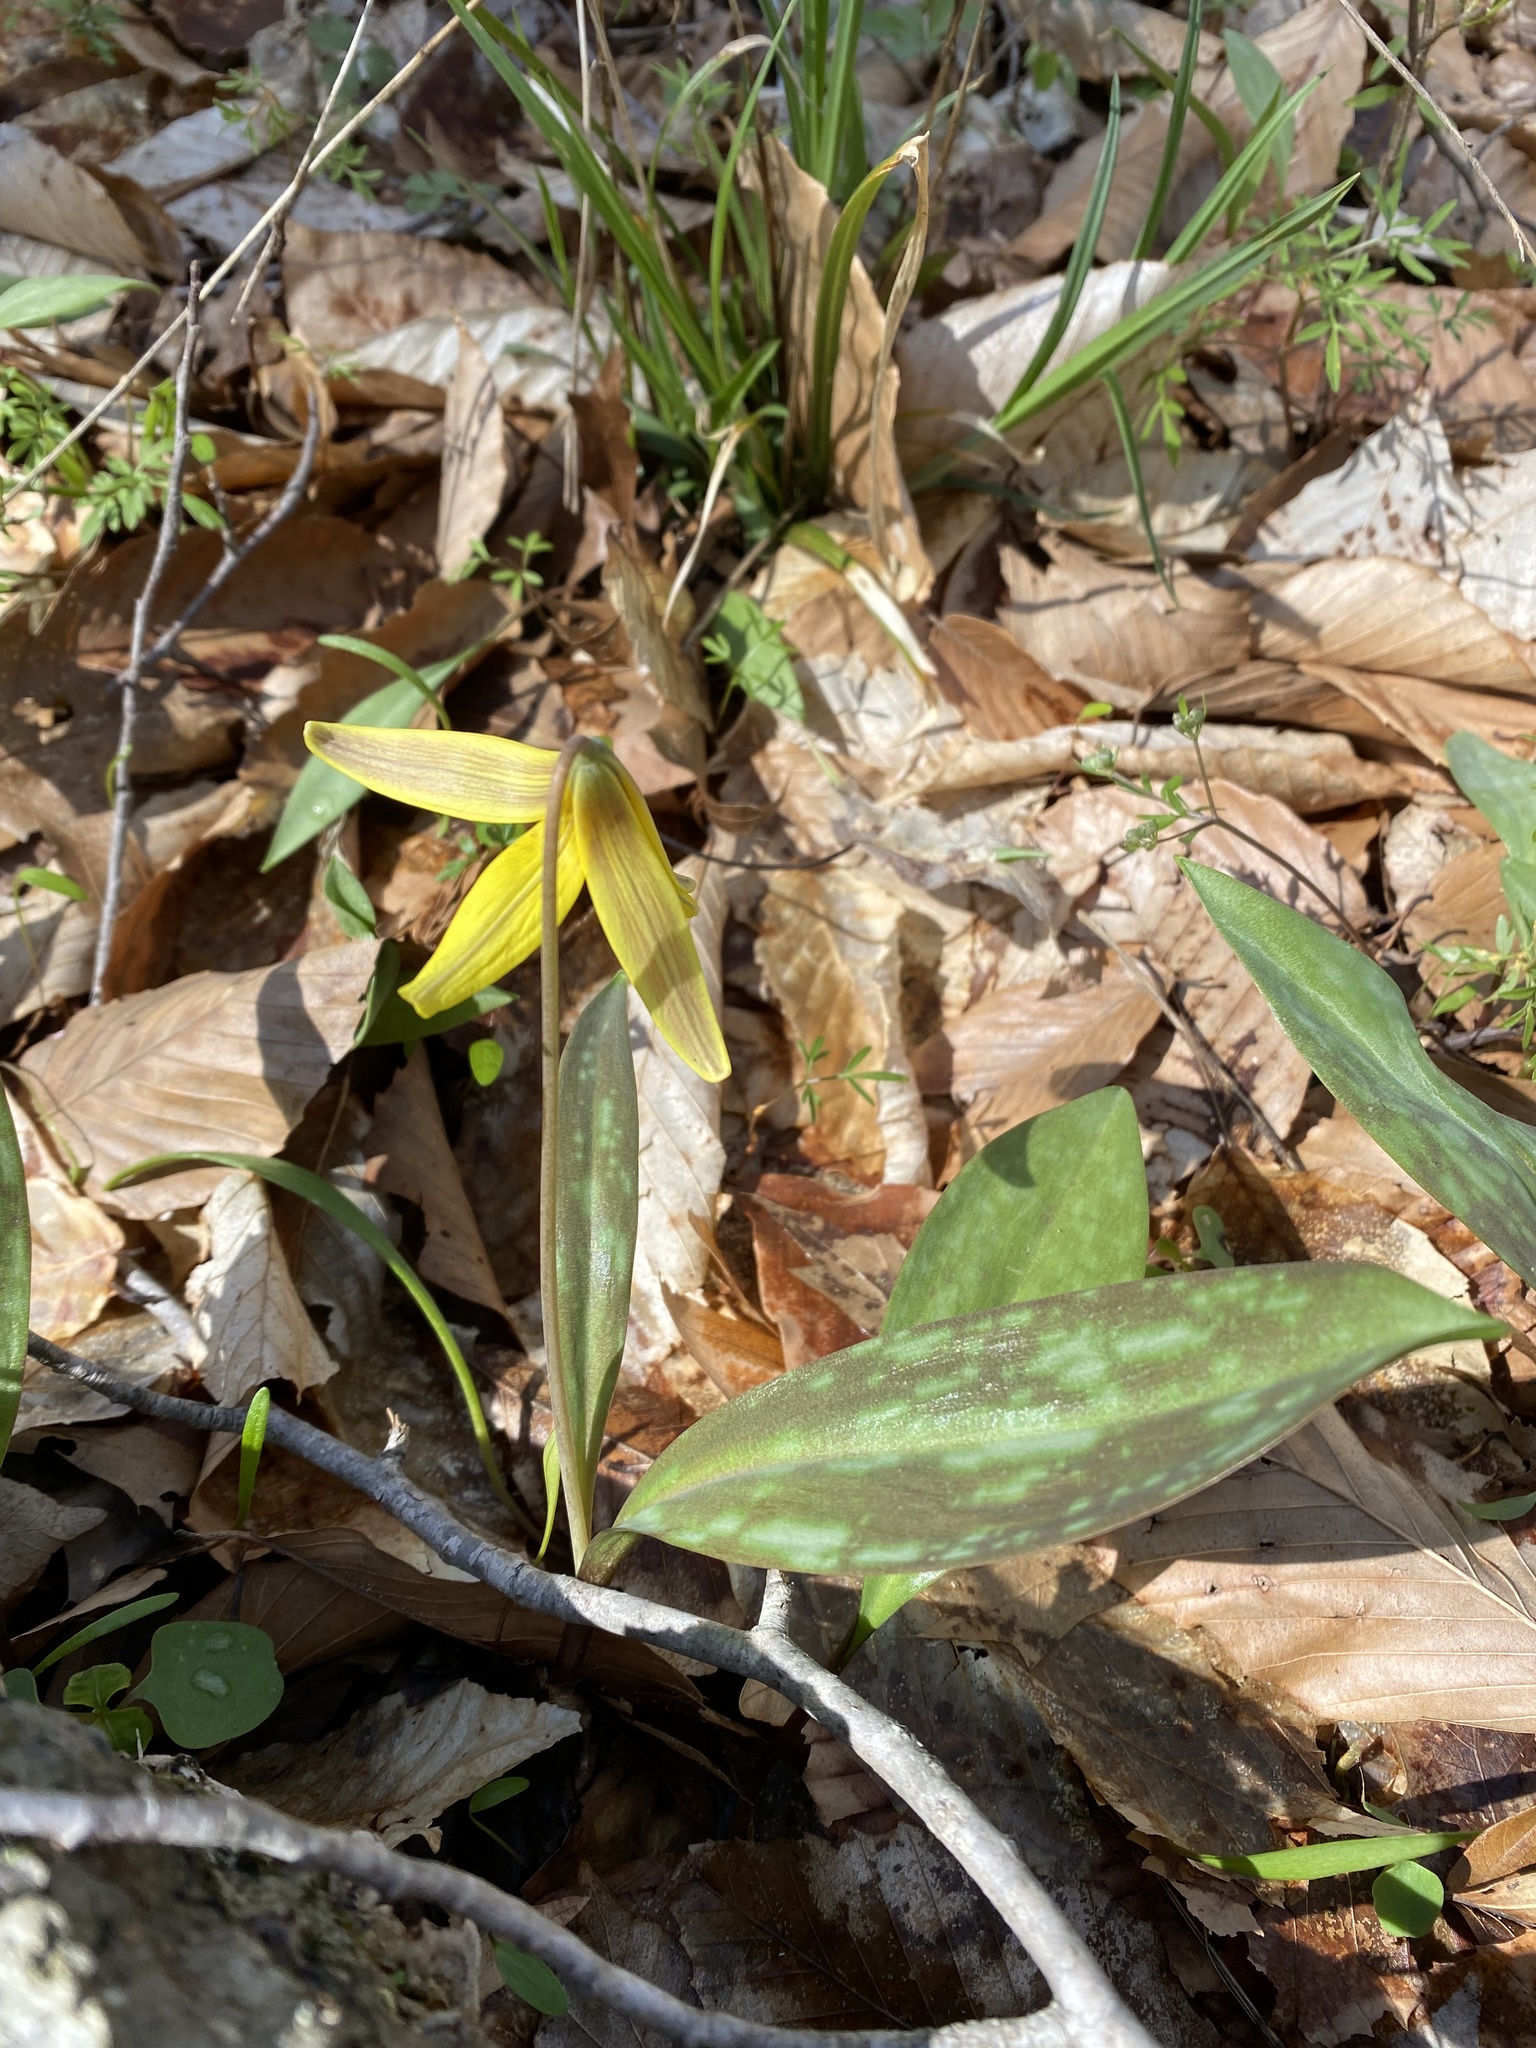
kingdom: Plantae
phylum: Tracheophyta
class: Liliopsida
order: Liliales
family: Liliaceae
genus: Erythronium
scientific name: Erythronium americanum
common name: Yellow adder's-tongue
